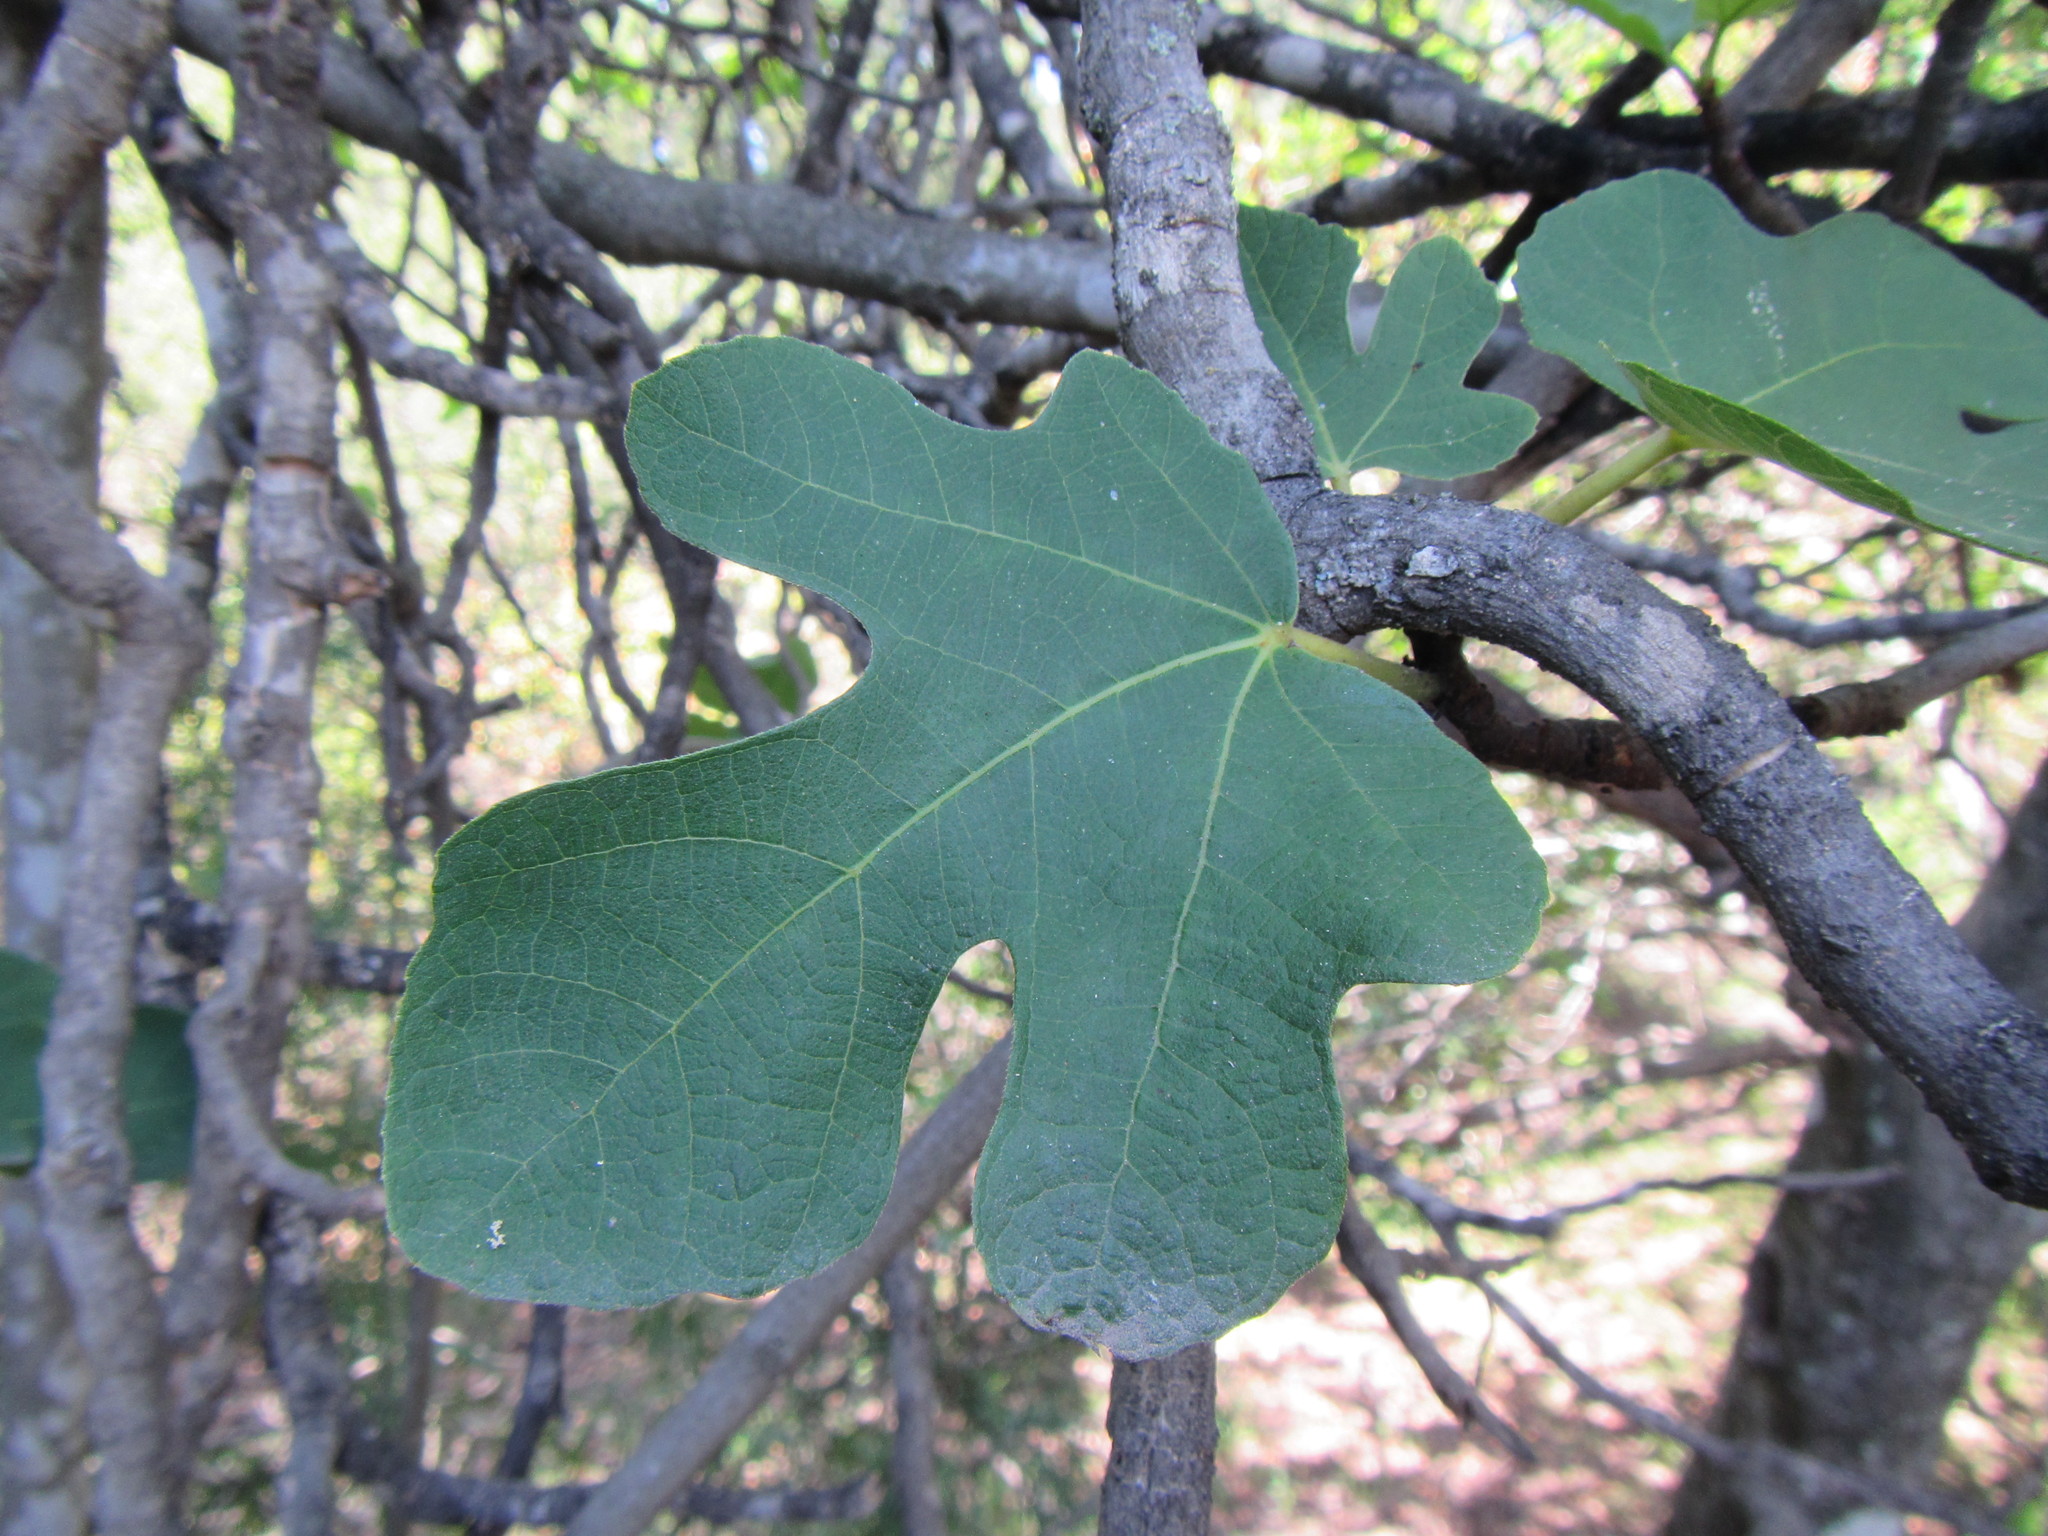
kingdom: Plantae
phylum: Tracheophyta
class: Magnoliopsida
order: Rosales
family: Moraceae
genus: Ficus
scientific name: Ficus carica
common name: Fig
